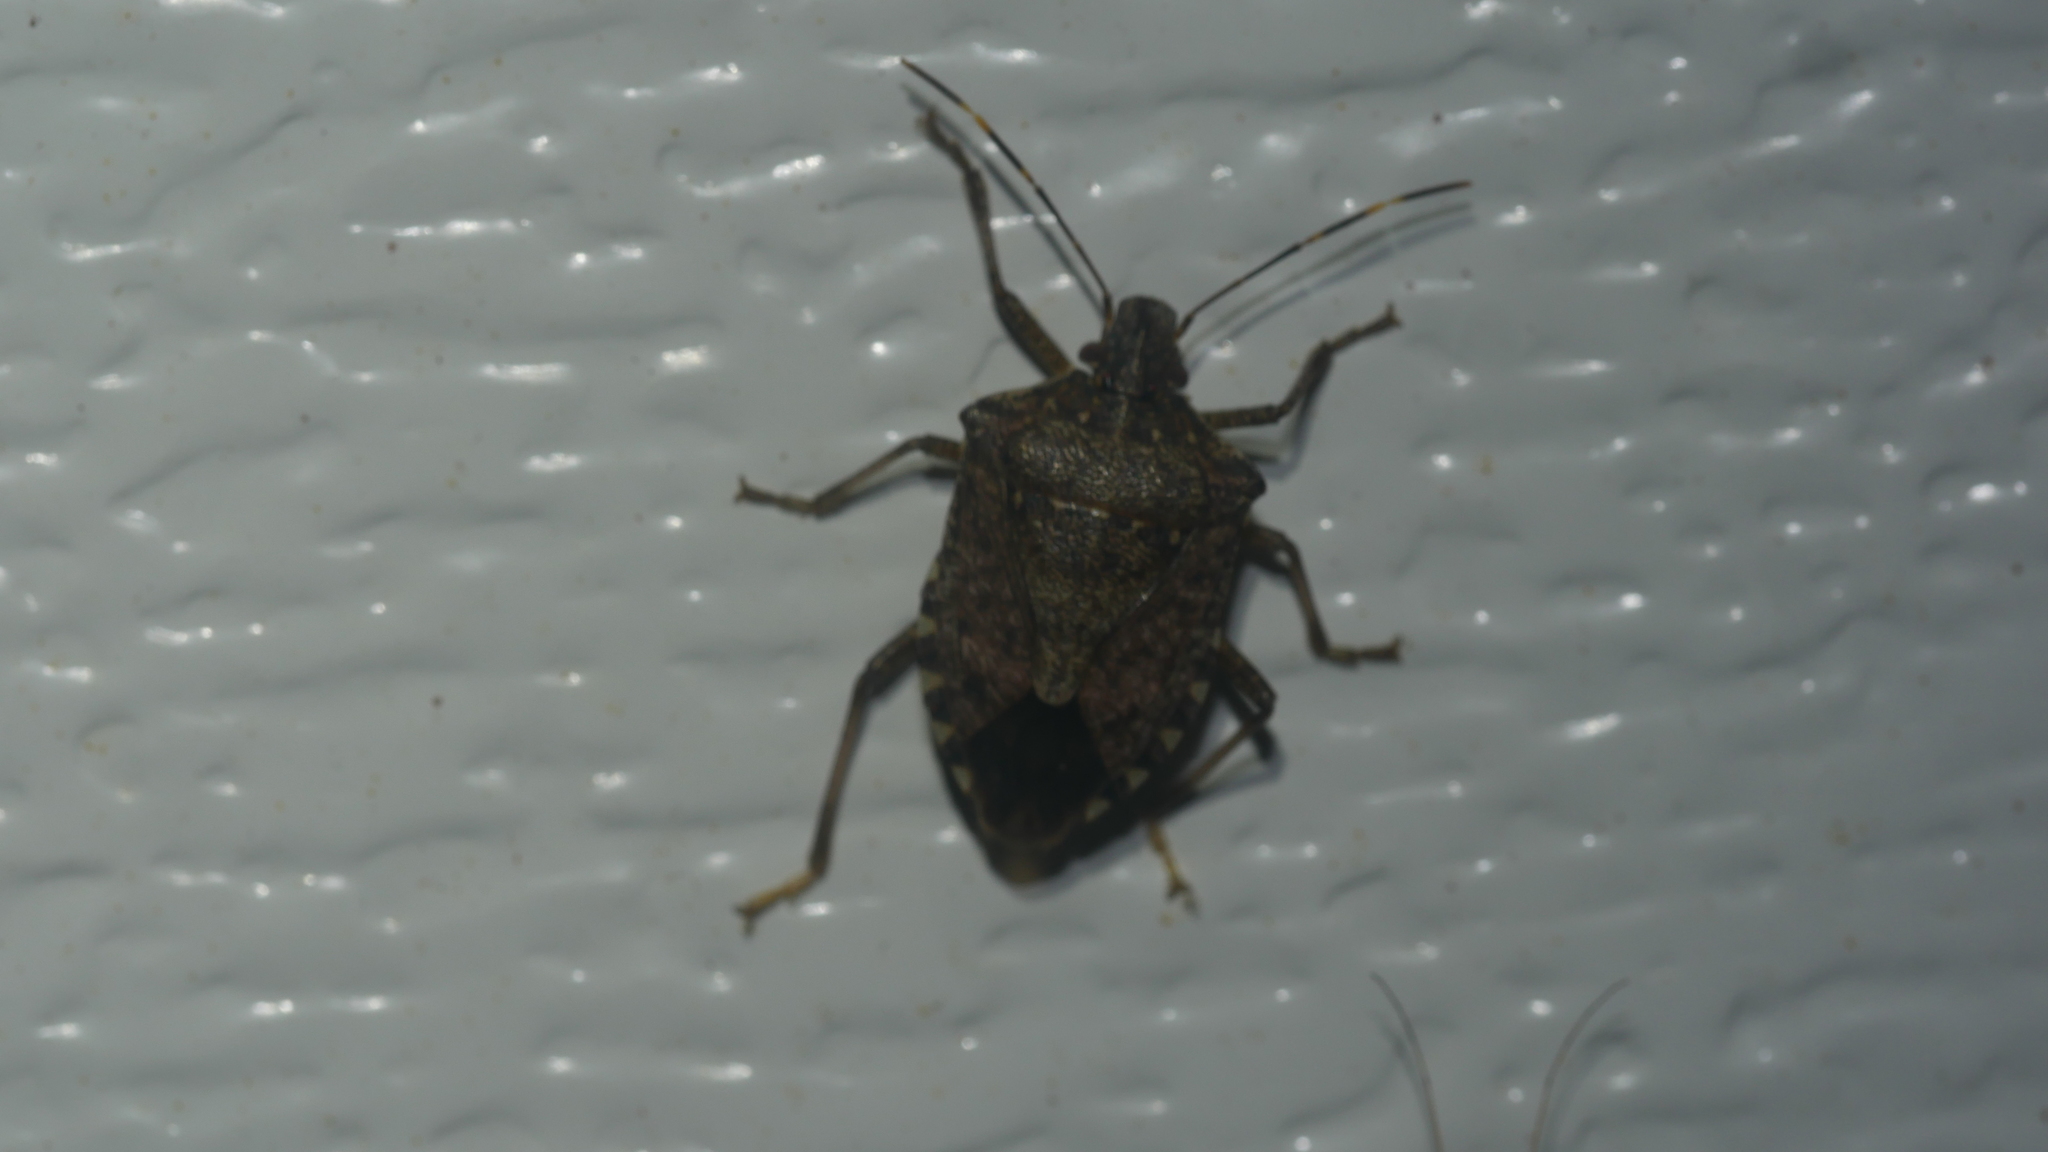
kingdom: Animalia
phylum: Arthropoda
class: Insecta
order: Hemiptera
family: Pentatomidae
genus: Halyomorpha
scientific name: Halyomorpha halys
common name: Brown marmorated stink bug
